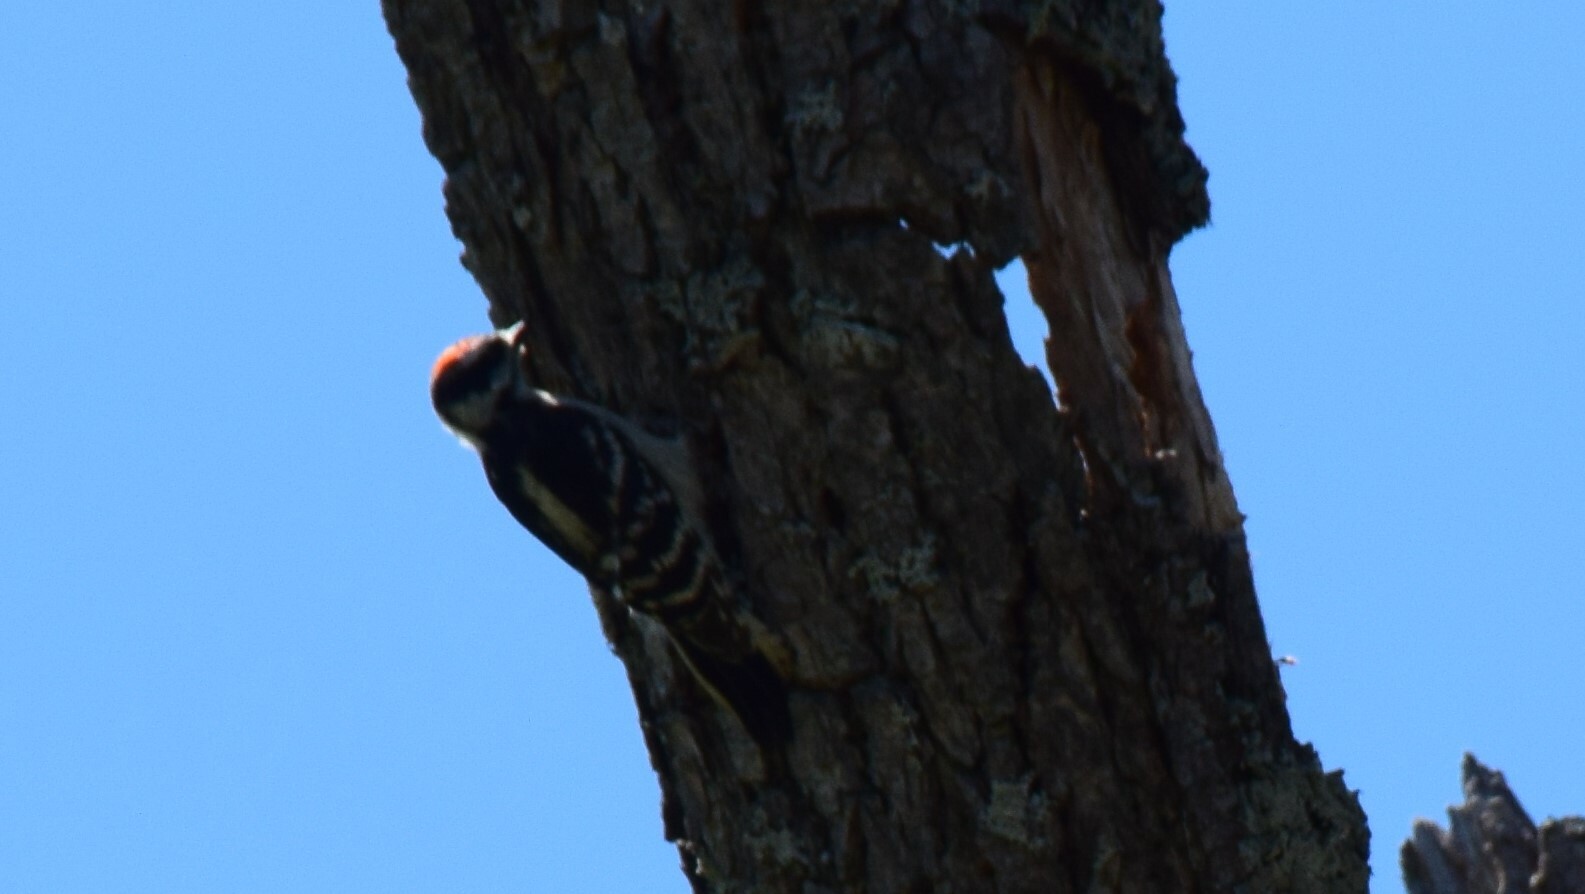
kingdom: Animalia
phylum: Chordata
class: Aves
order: Piciformes
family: Picidae
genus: Leuconotopicus
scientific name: Leuconotopicus villosus
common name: Hairy woodpecker
